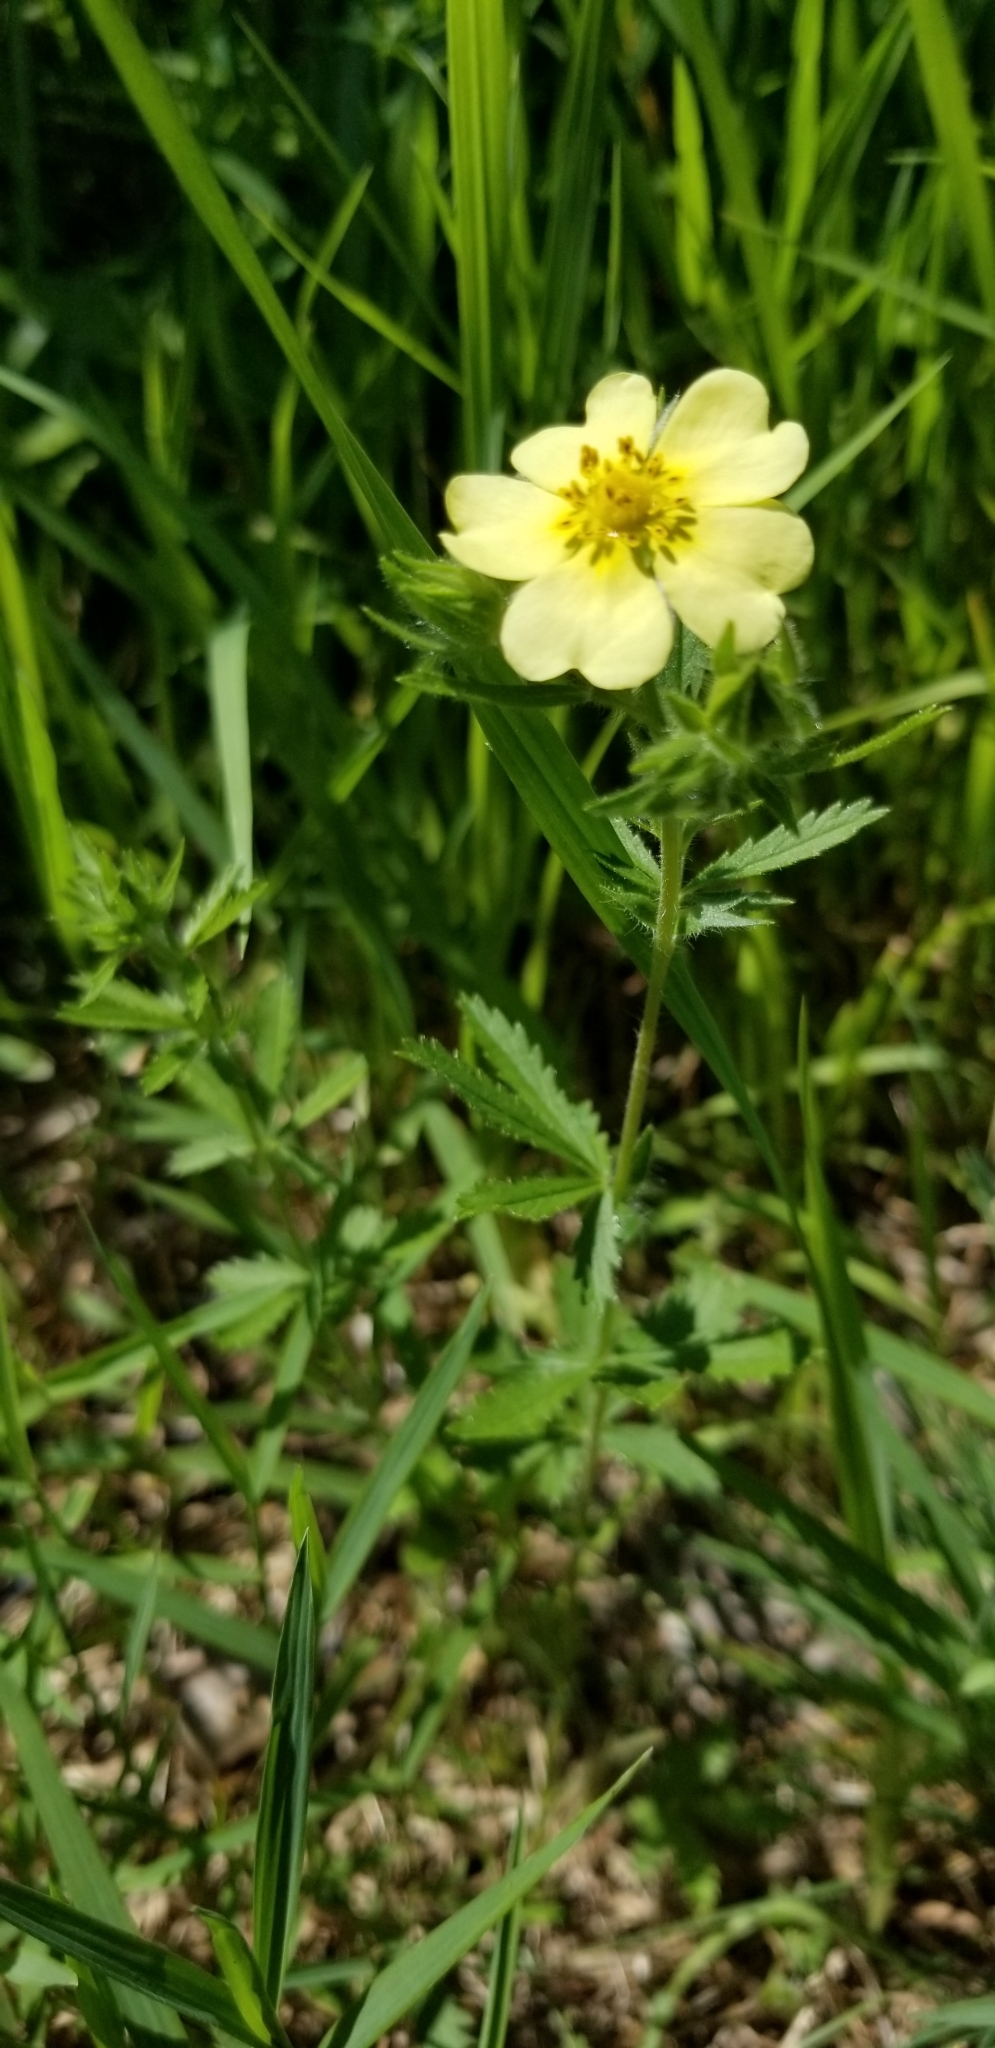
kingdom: Plantae
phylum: Tracheophyta
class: Magnoliopsida
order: Rosales
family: Rosaceae
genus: Potentilla
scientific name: Potentilla recta
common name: Sulphur cinquefoil
